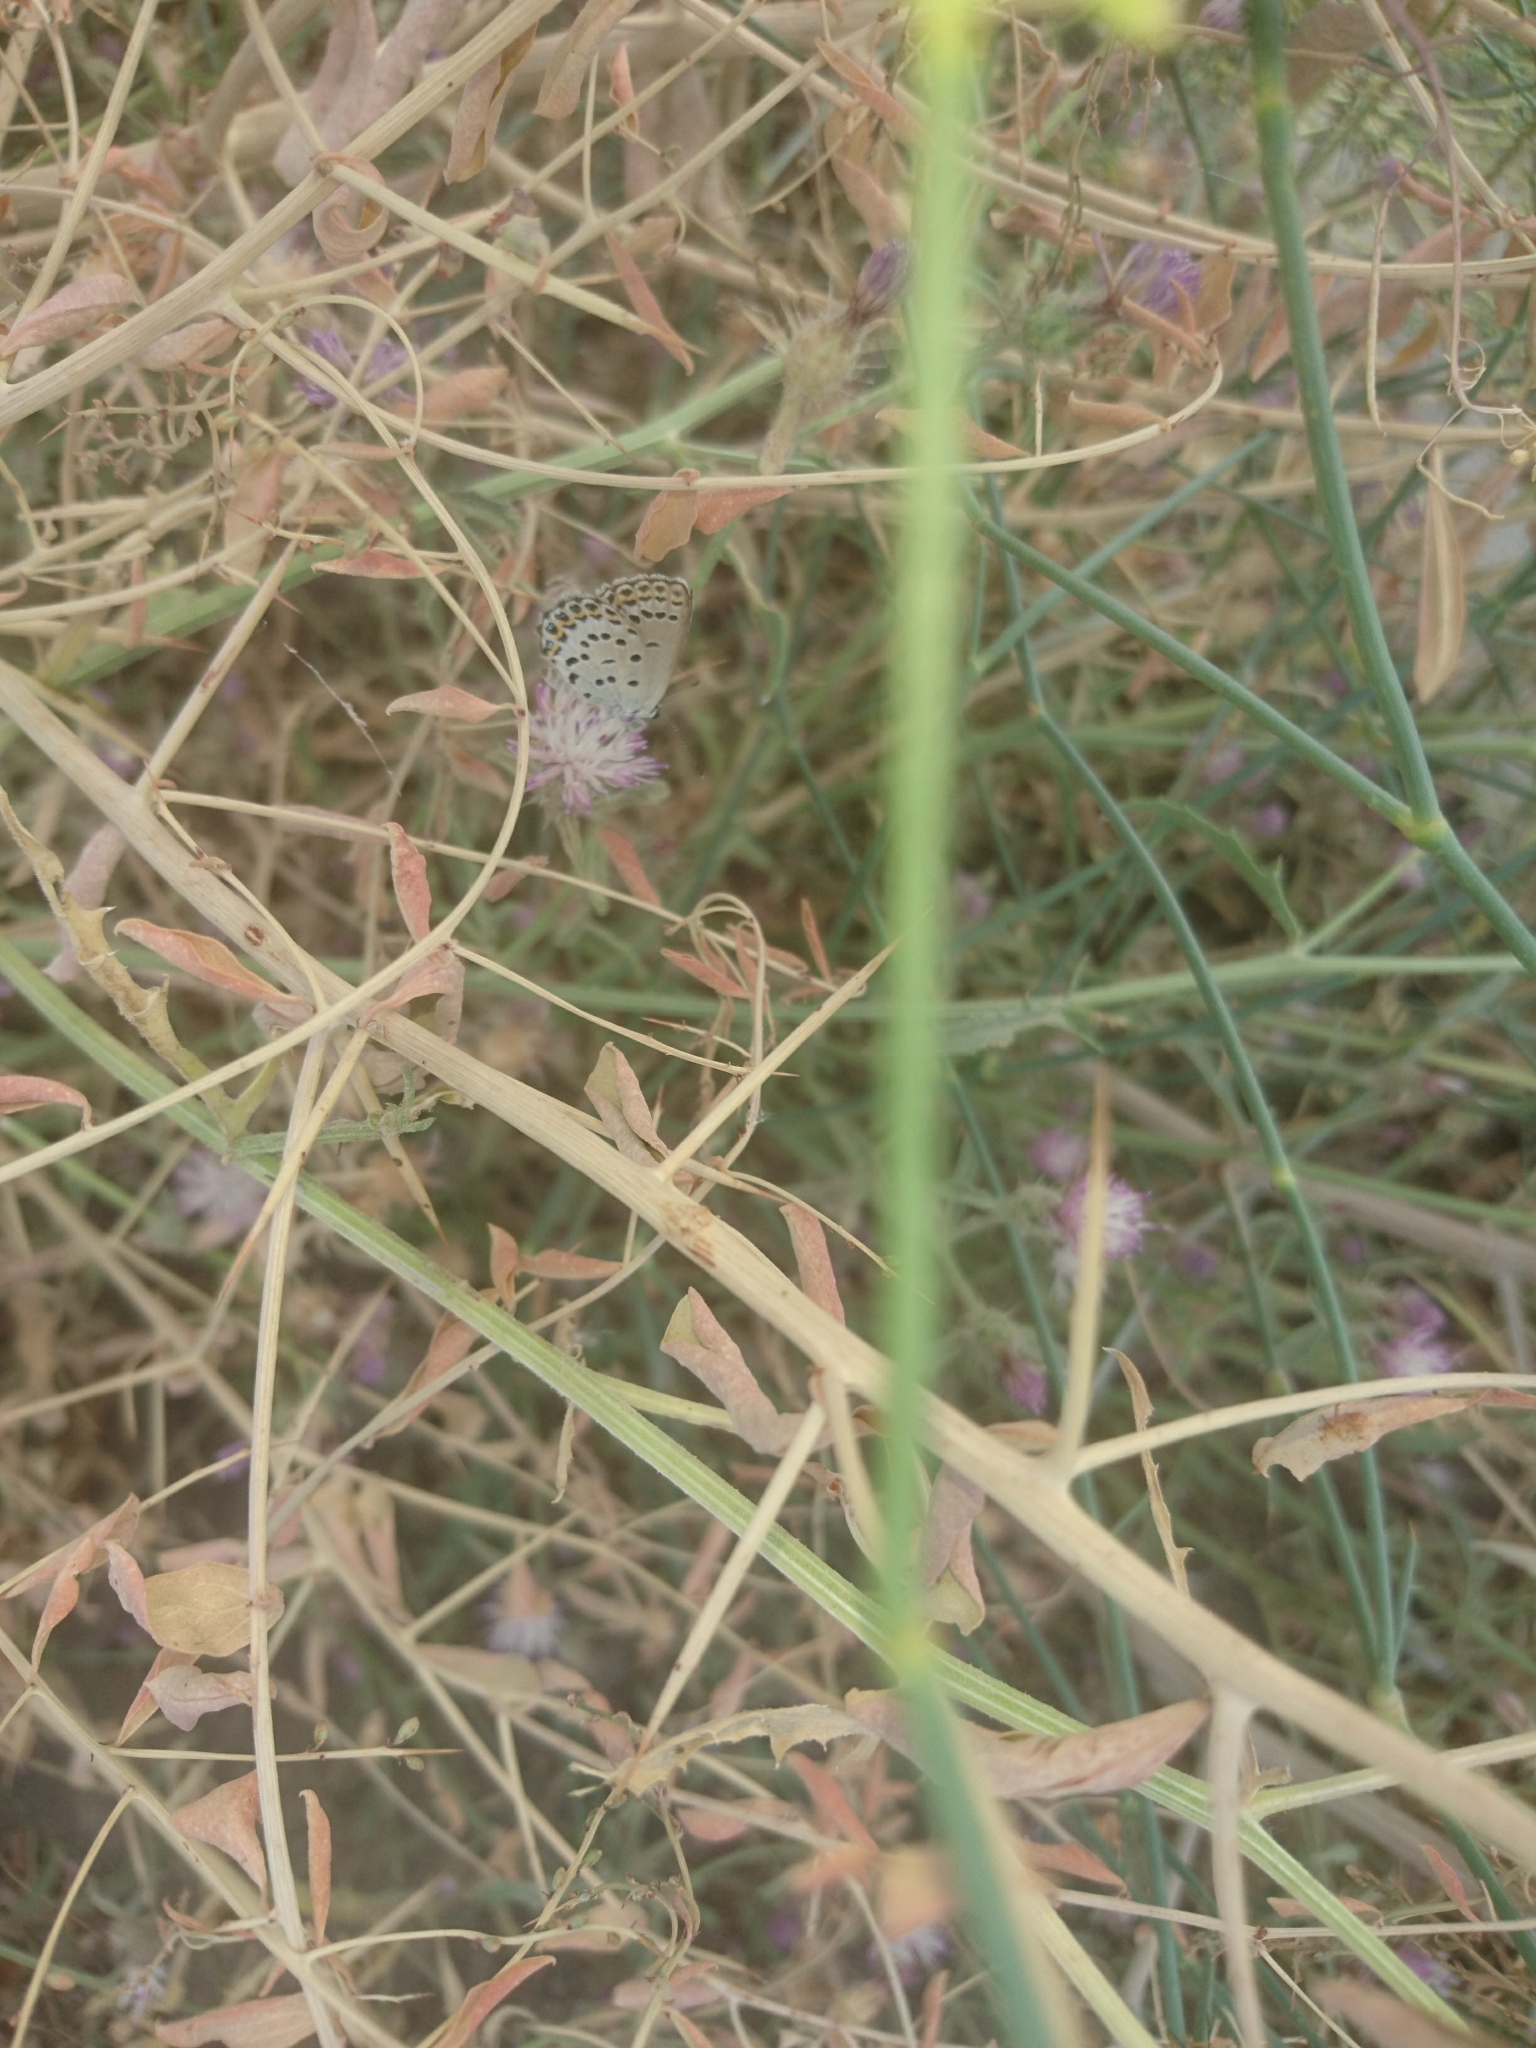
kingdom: Animalia
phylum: Arthropoda
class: Insecta
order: Lepidoptera
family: Lycaenidae
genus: Lycaeides
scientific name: Lycaeides idas
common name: Northern blue
